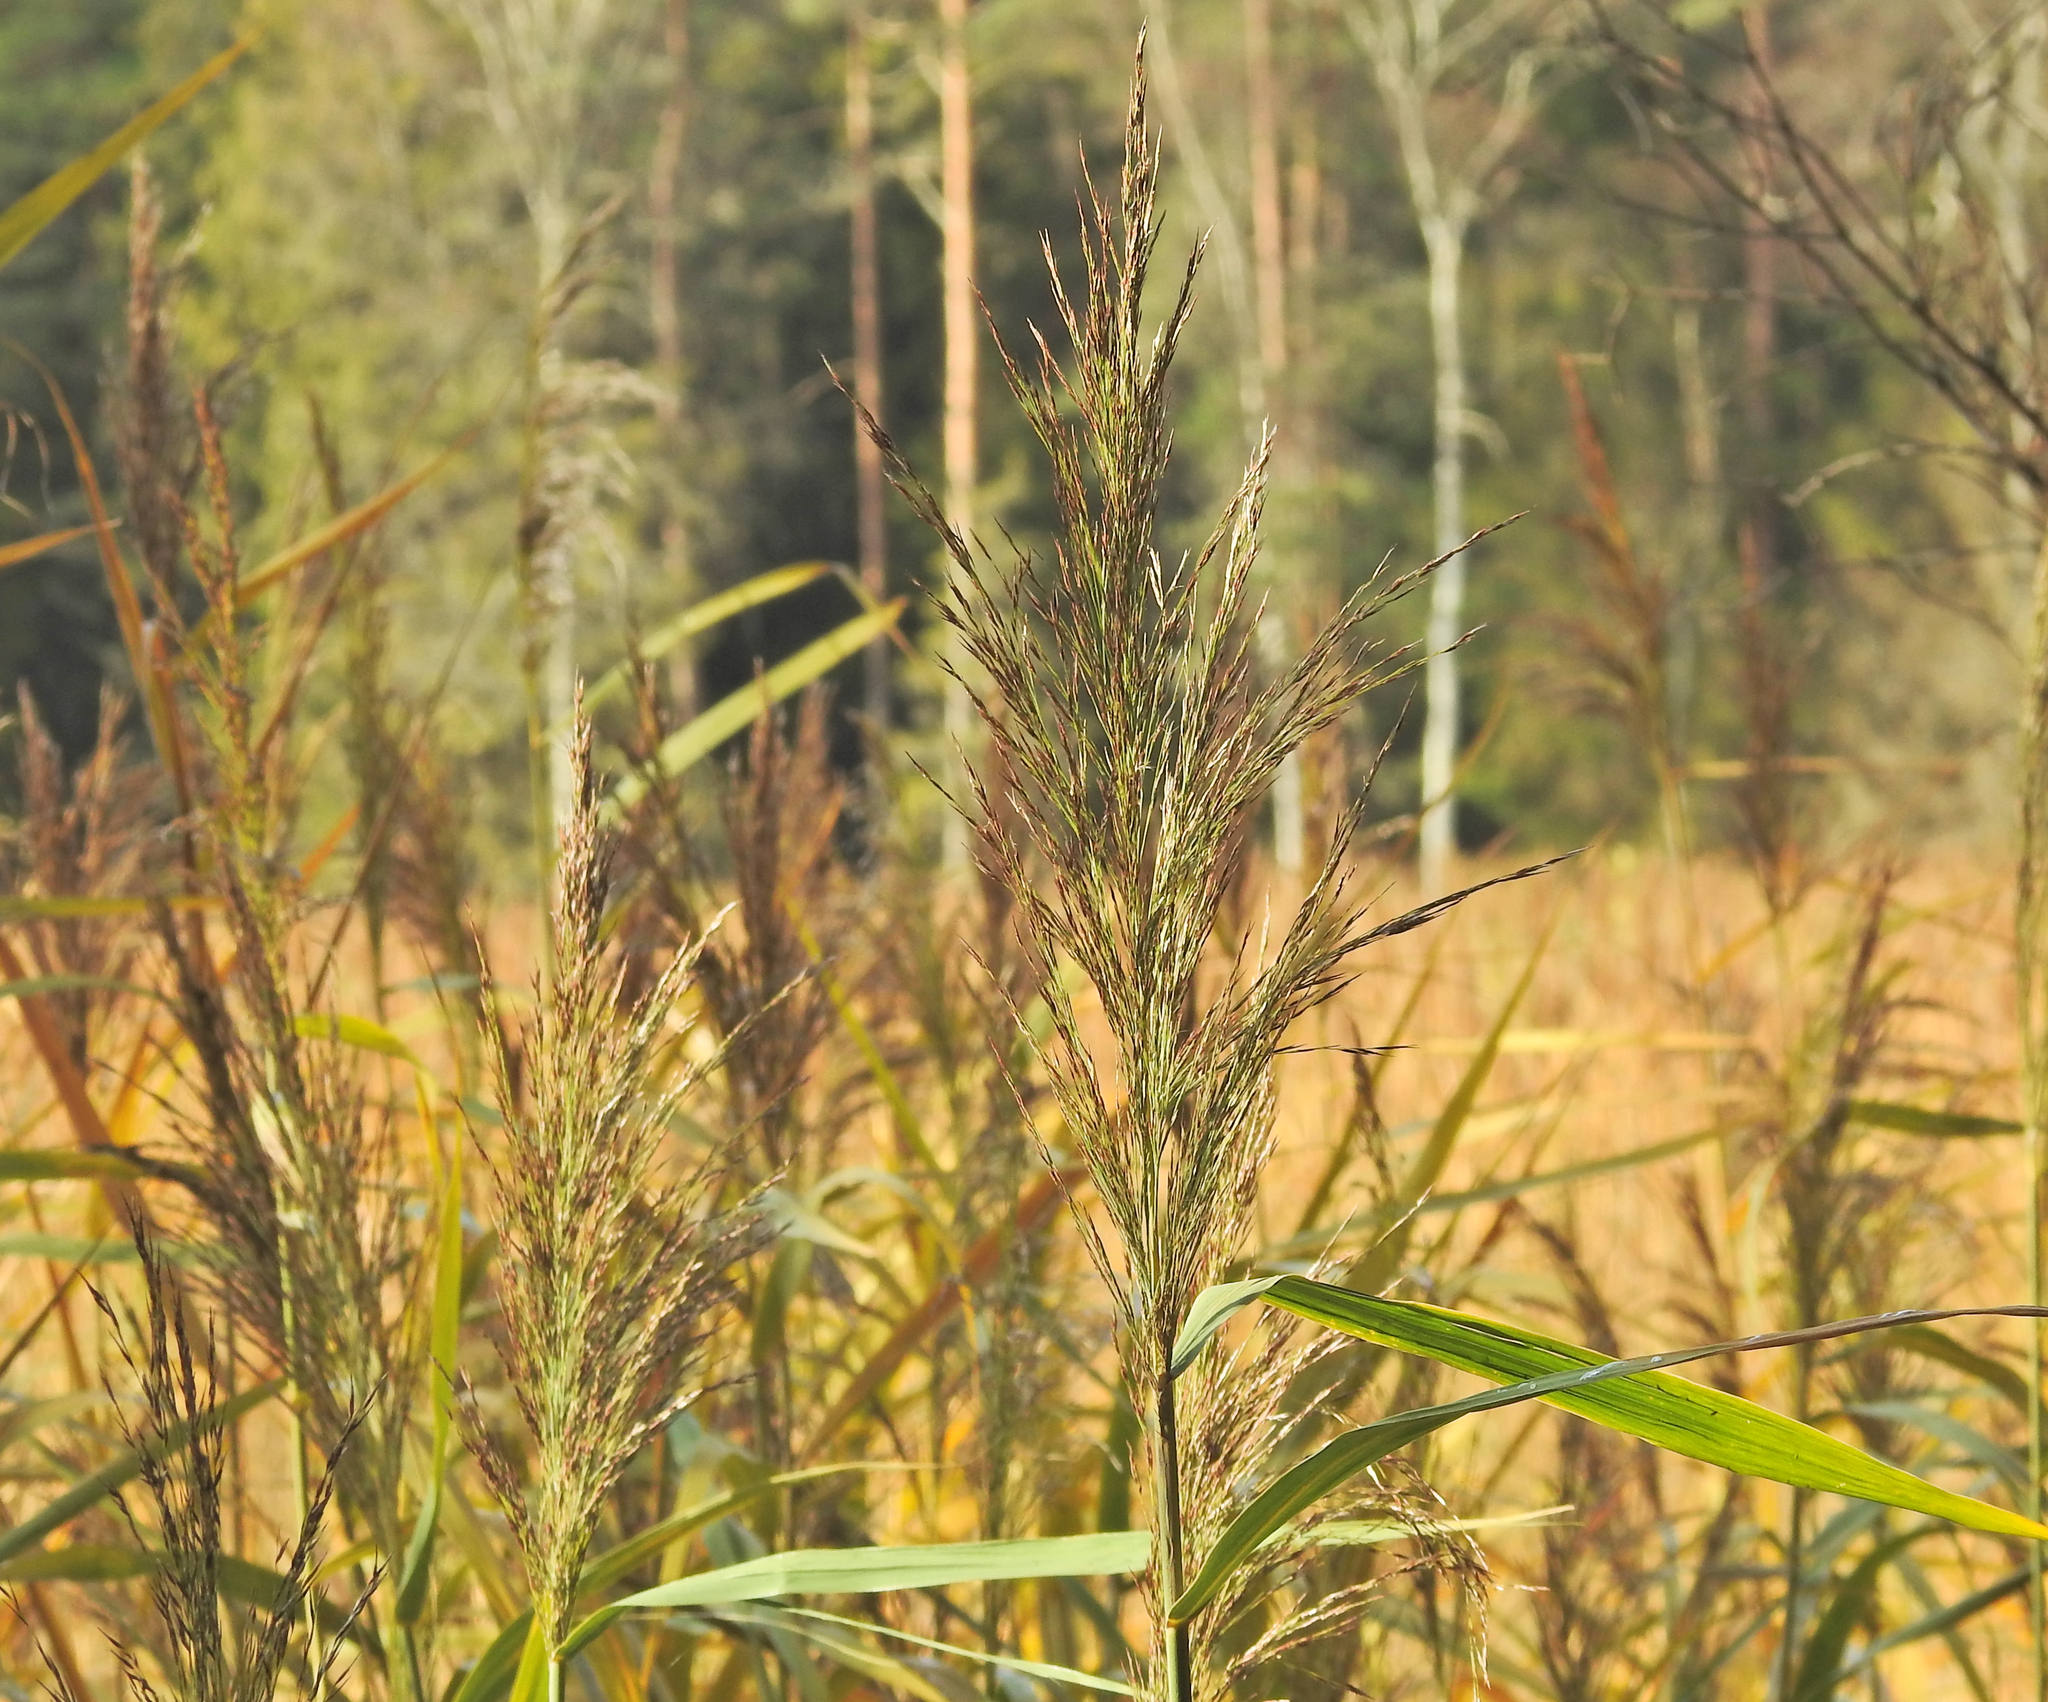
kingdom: Plantae
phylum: Tracheophyta
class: Liliopsida
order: Poales
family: Poaceae
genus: Phragmites
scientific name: Phragmites australis
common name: Common reed
